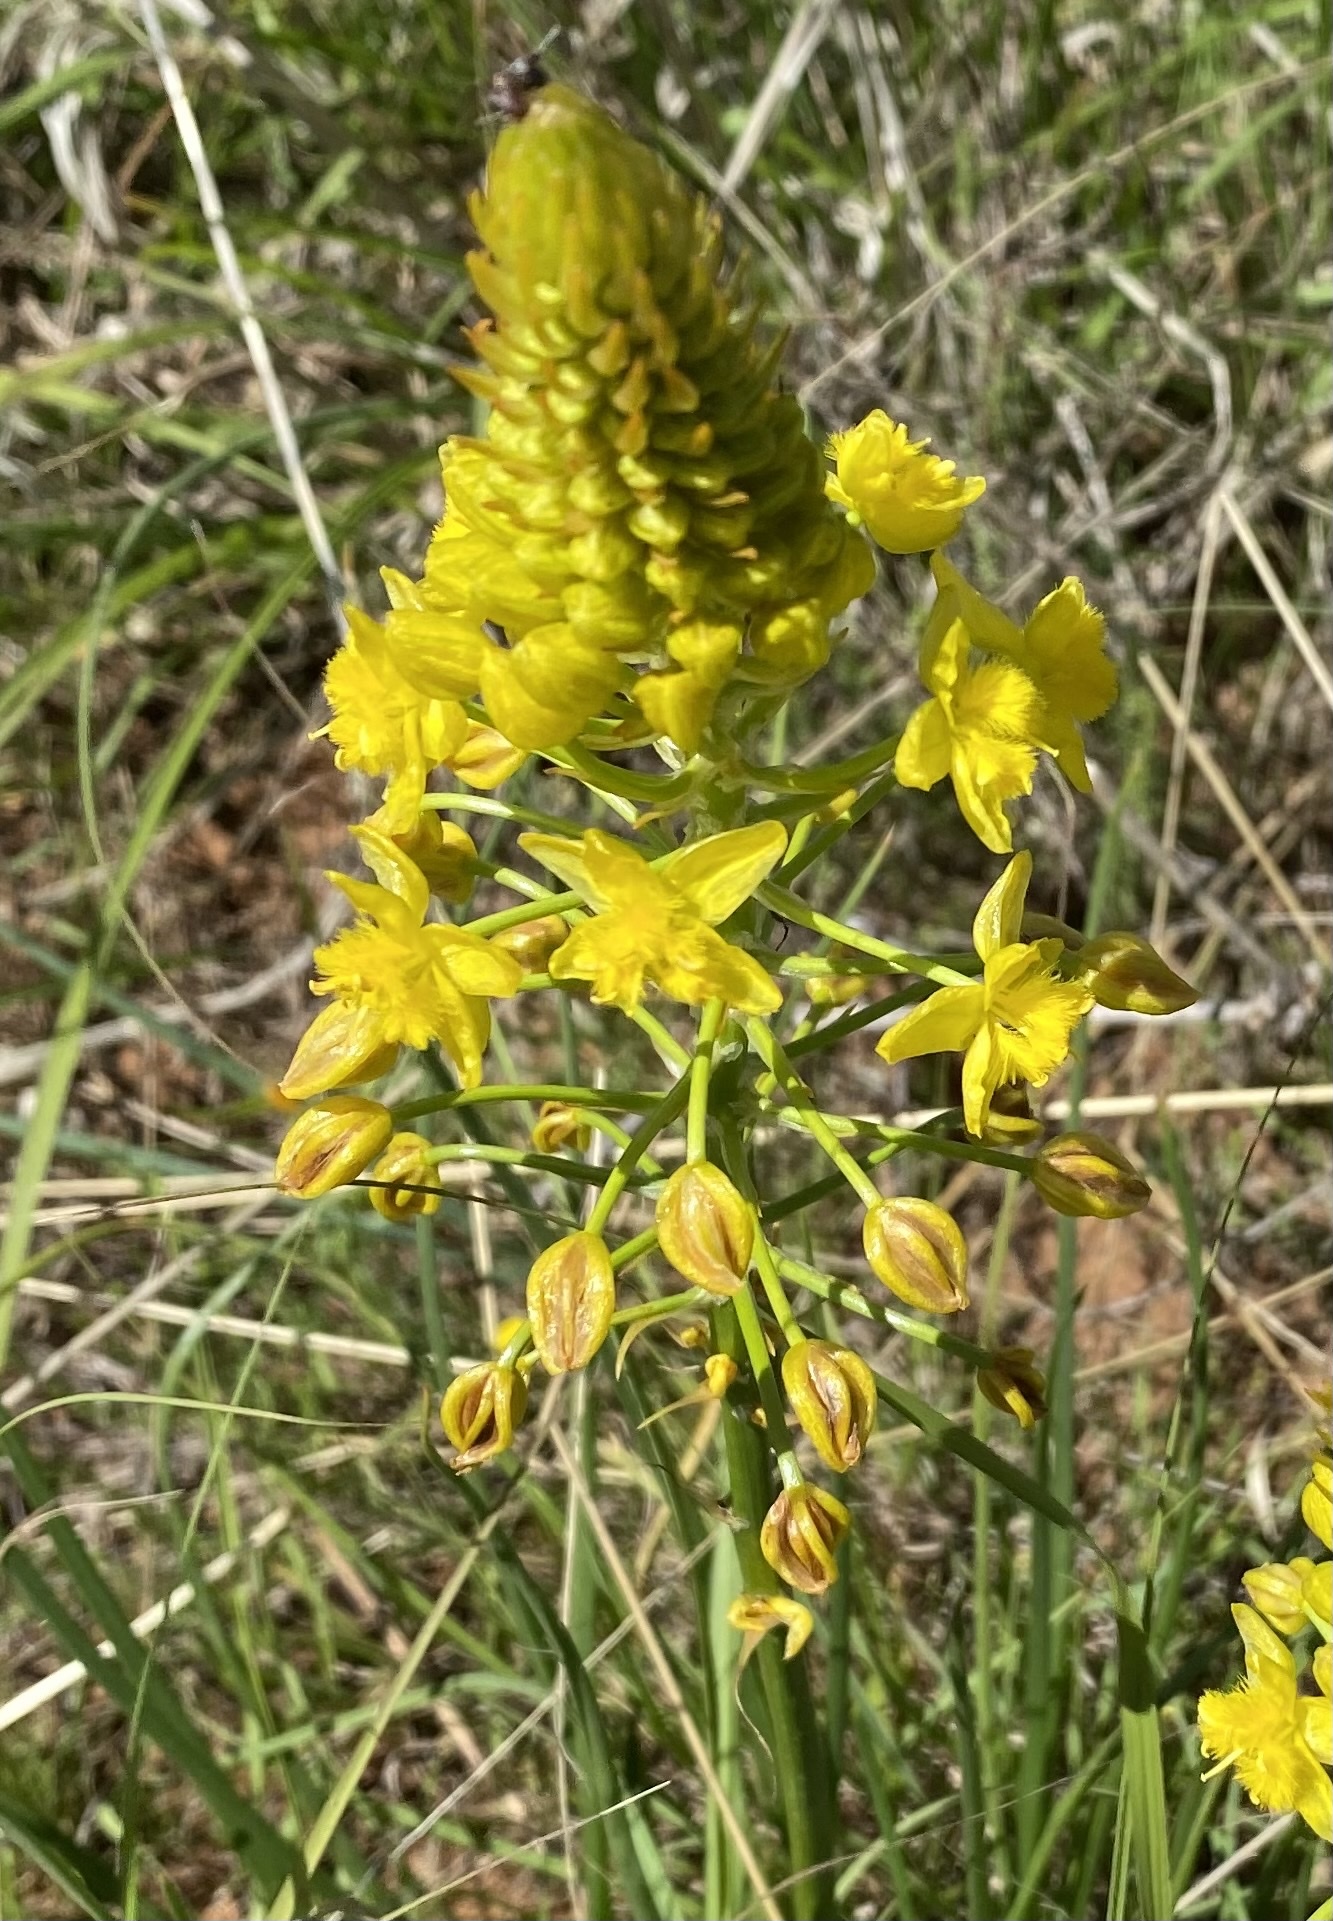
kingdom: Plantae
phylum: Tracheophyta
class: Liliopsida
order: Asparagales
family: Asphodelaceae
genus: Bulbine
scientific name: Bulbine abyssinica
